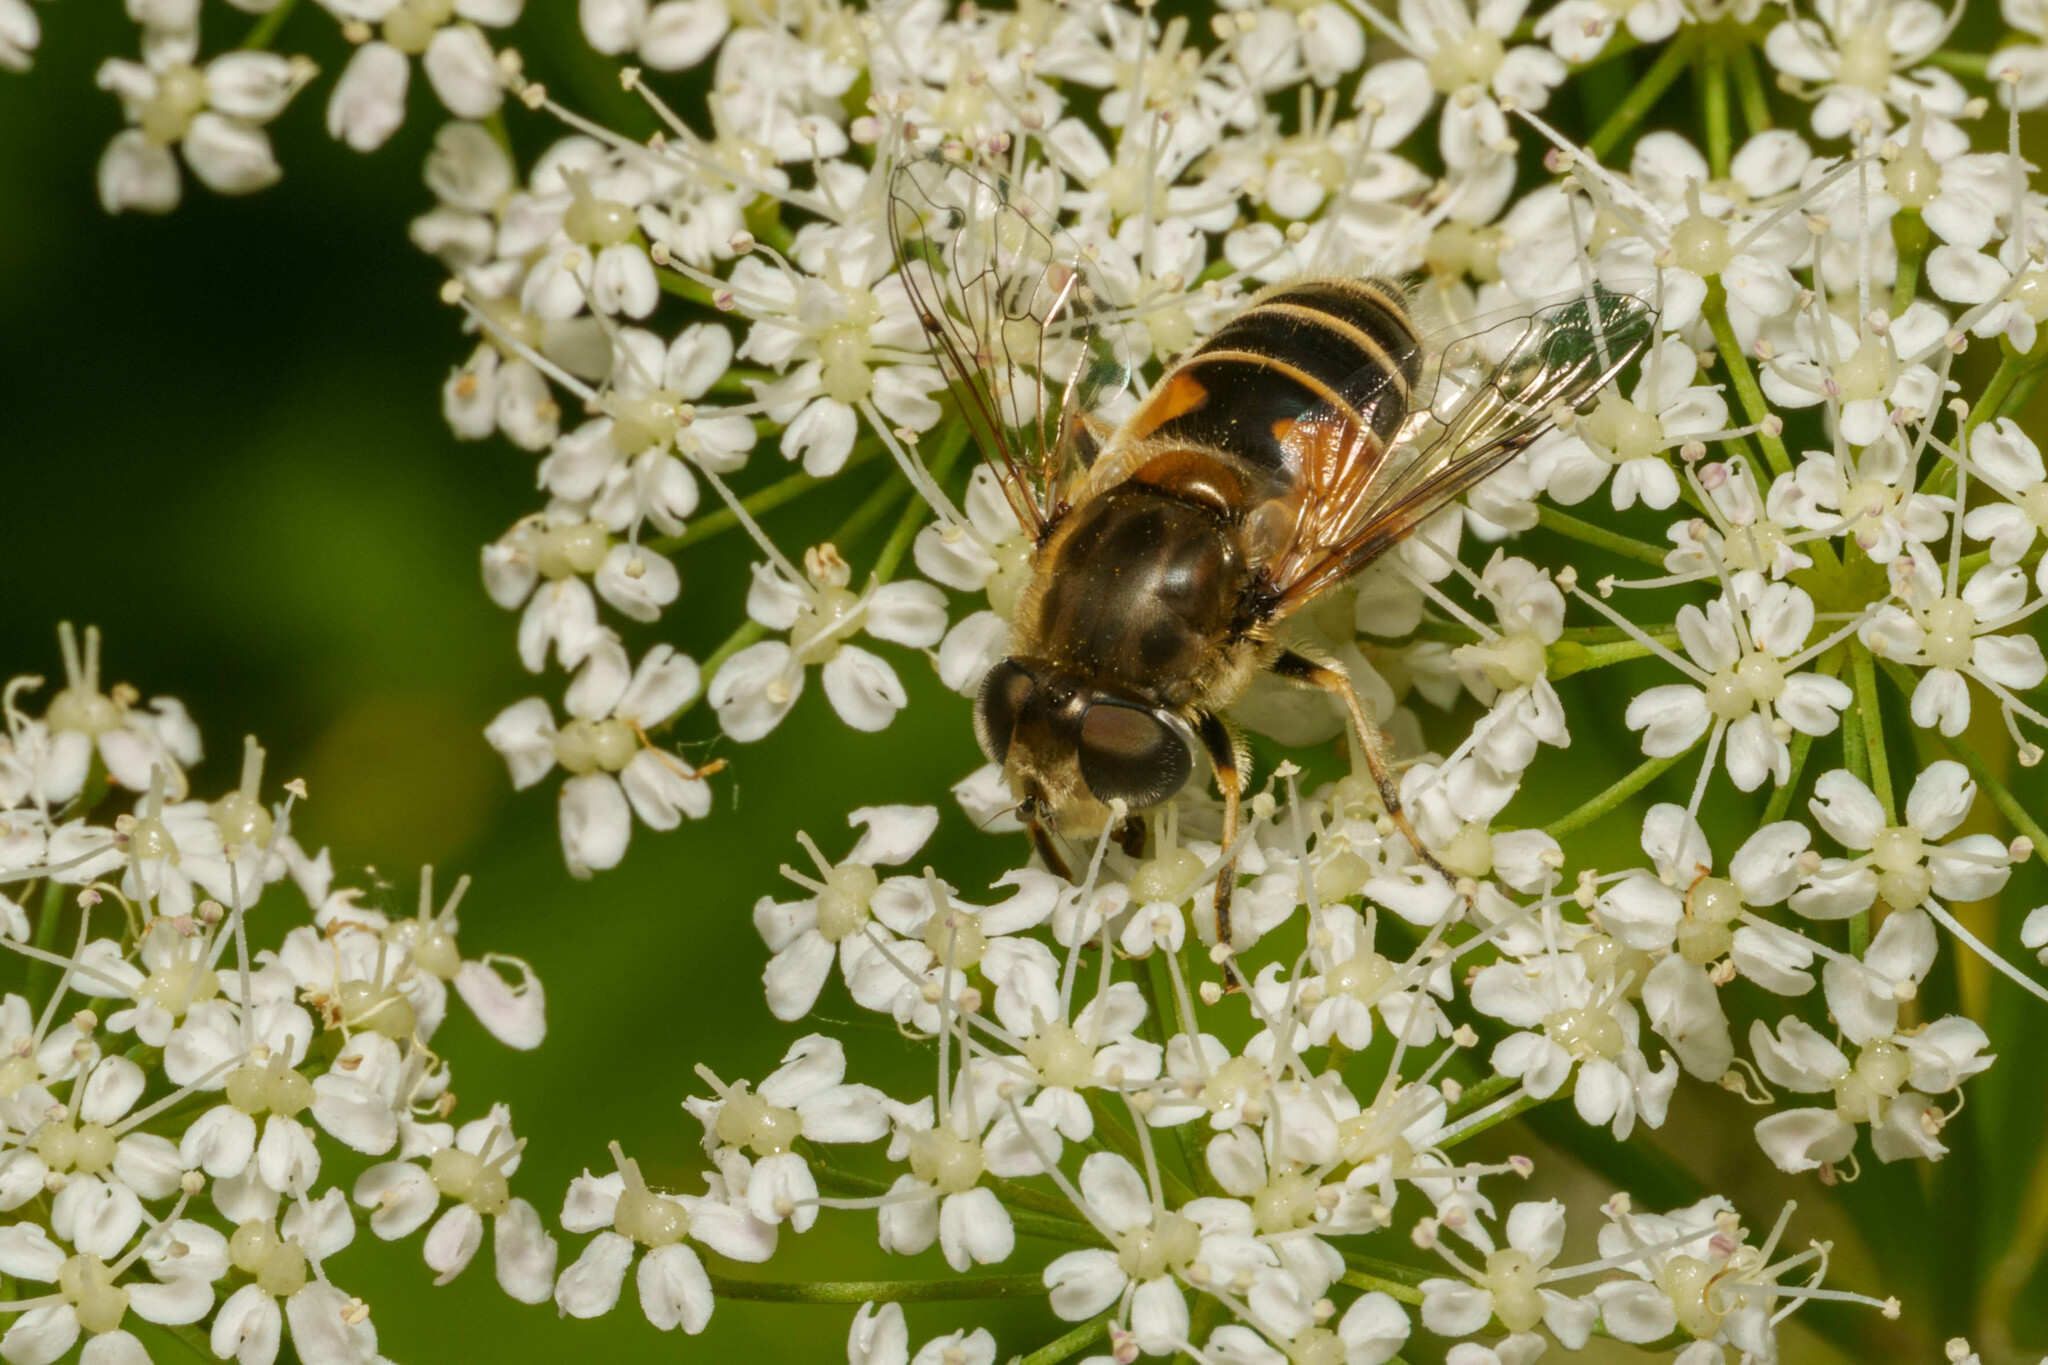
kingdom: Animalia
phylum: Arthropoda
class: Insecta
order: Diptera
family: Syrphidae
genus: Eristalis
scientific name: Eristalis arbustorum
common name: Hover fly
